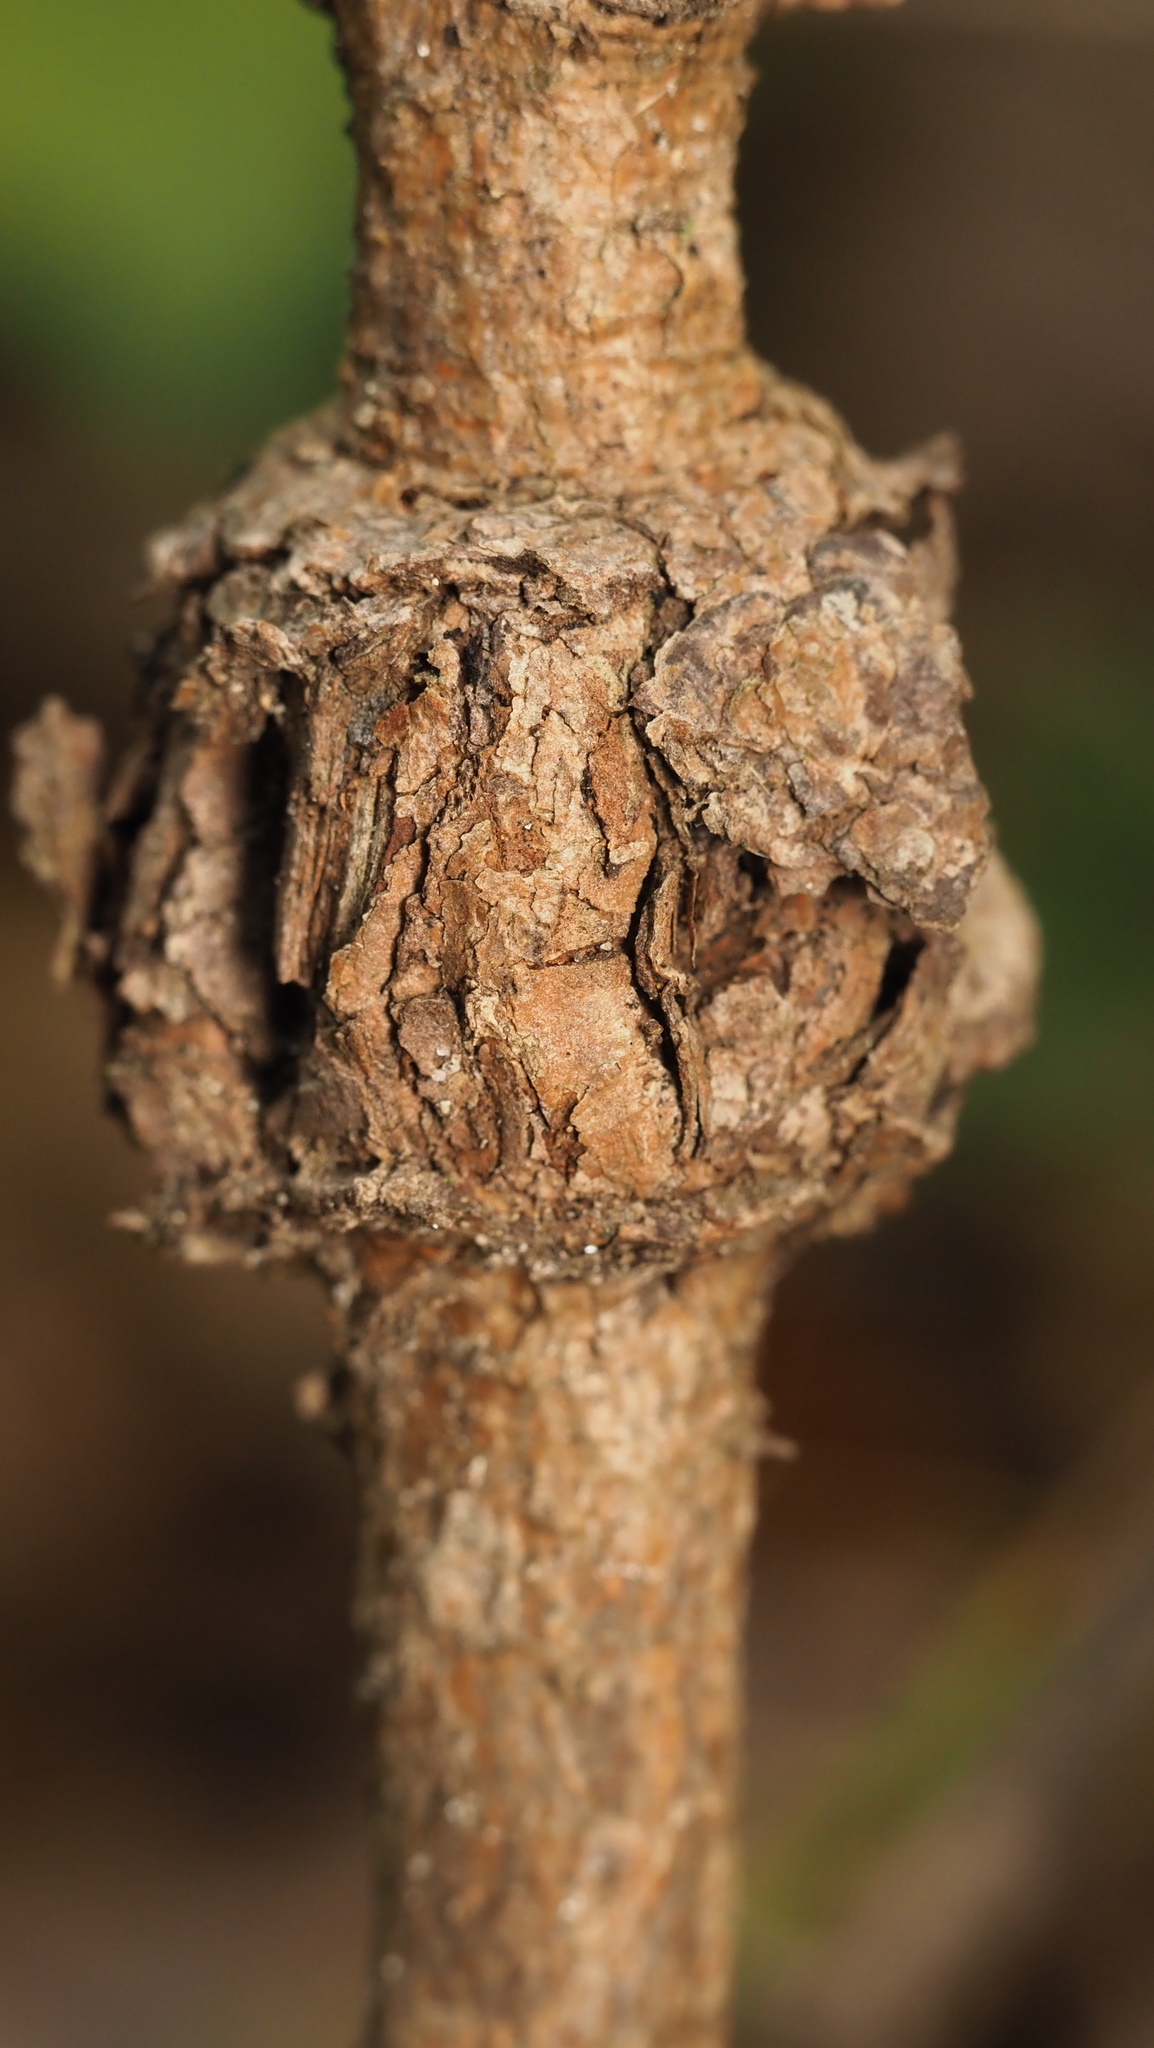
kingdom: Fungi
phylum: Basidiomycota
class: Pucciniomycetes
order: Pucciniales
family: Cronartiaceae
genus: Cronartium
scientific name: Cronartium quercuum
